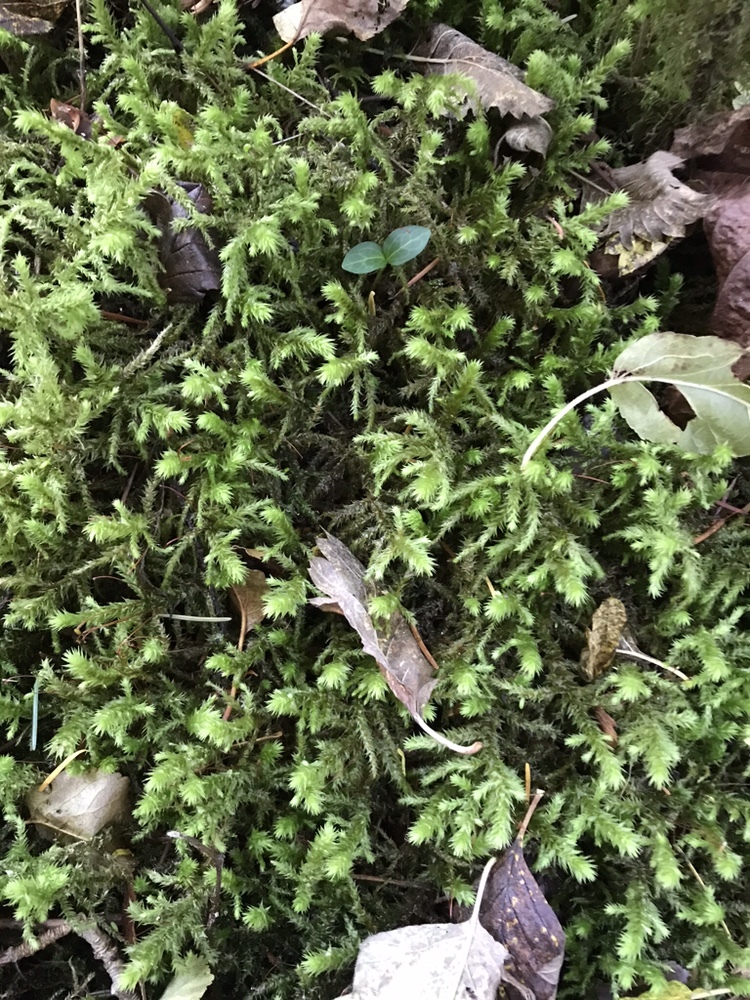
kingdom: Plantae
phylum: Bryophyta
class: Bryopsida
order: Hypnales
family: Hylocomiaceae
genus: Hylocomiadelphus
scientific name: Hylocomiadelphus triquetrus
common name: Rough goose neck moss
